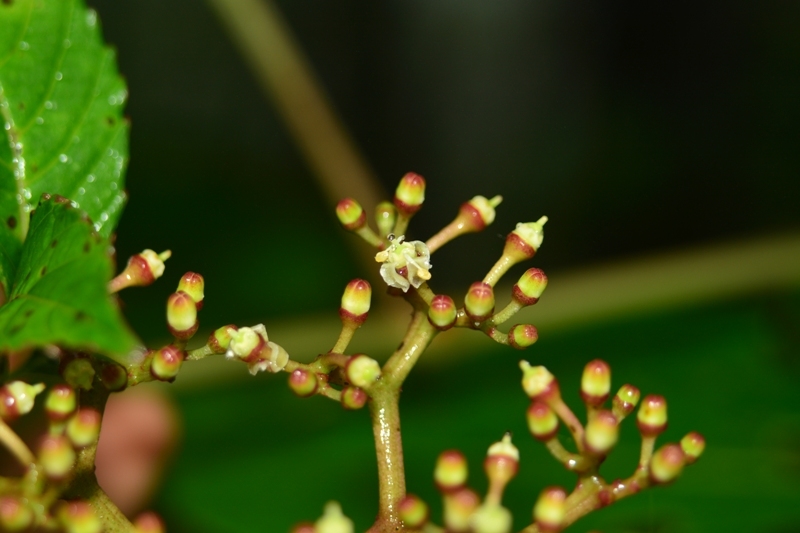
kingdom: Plantae
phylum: Tracheophyta
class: Magnoliopsida
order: Vitales
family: Vitaceae
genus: Cissus
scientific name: Cissus elongata
